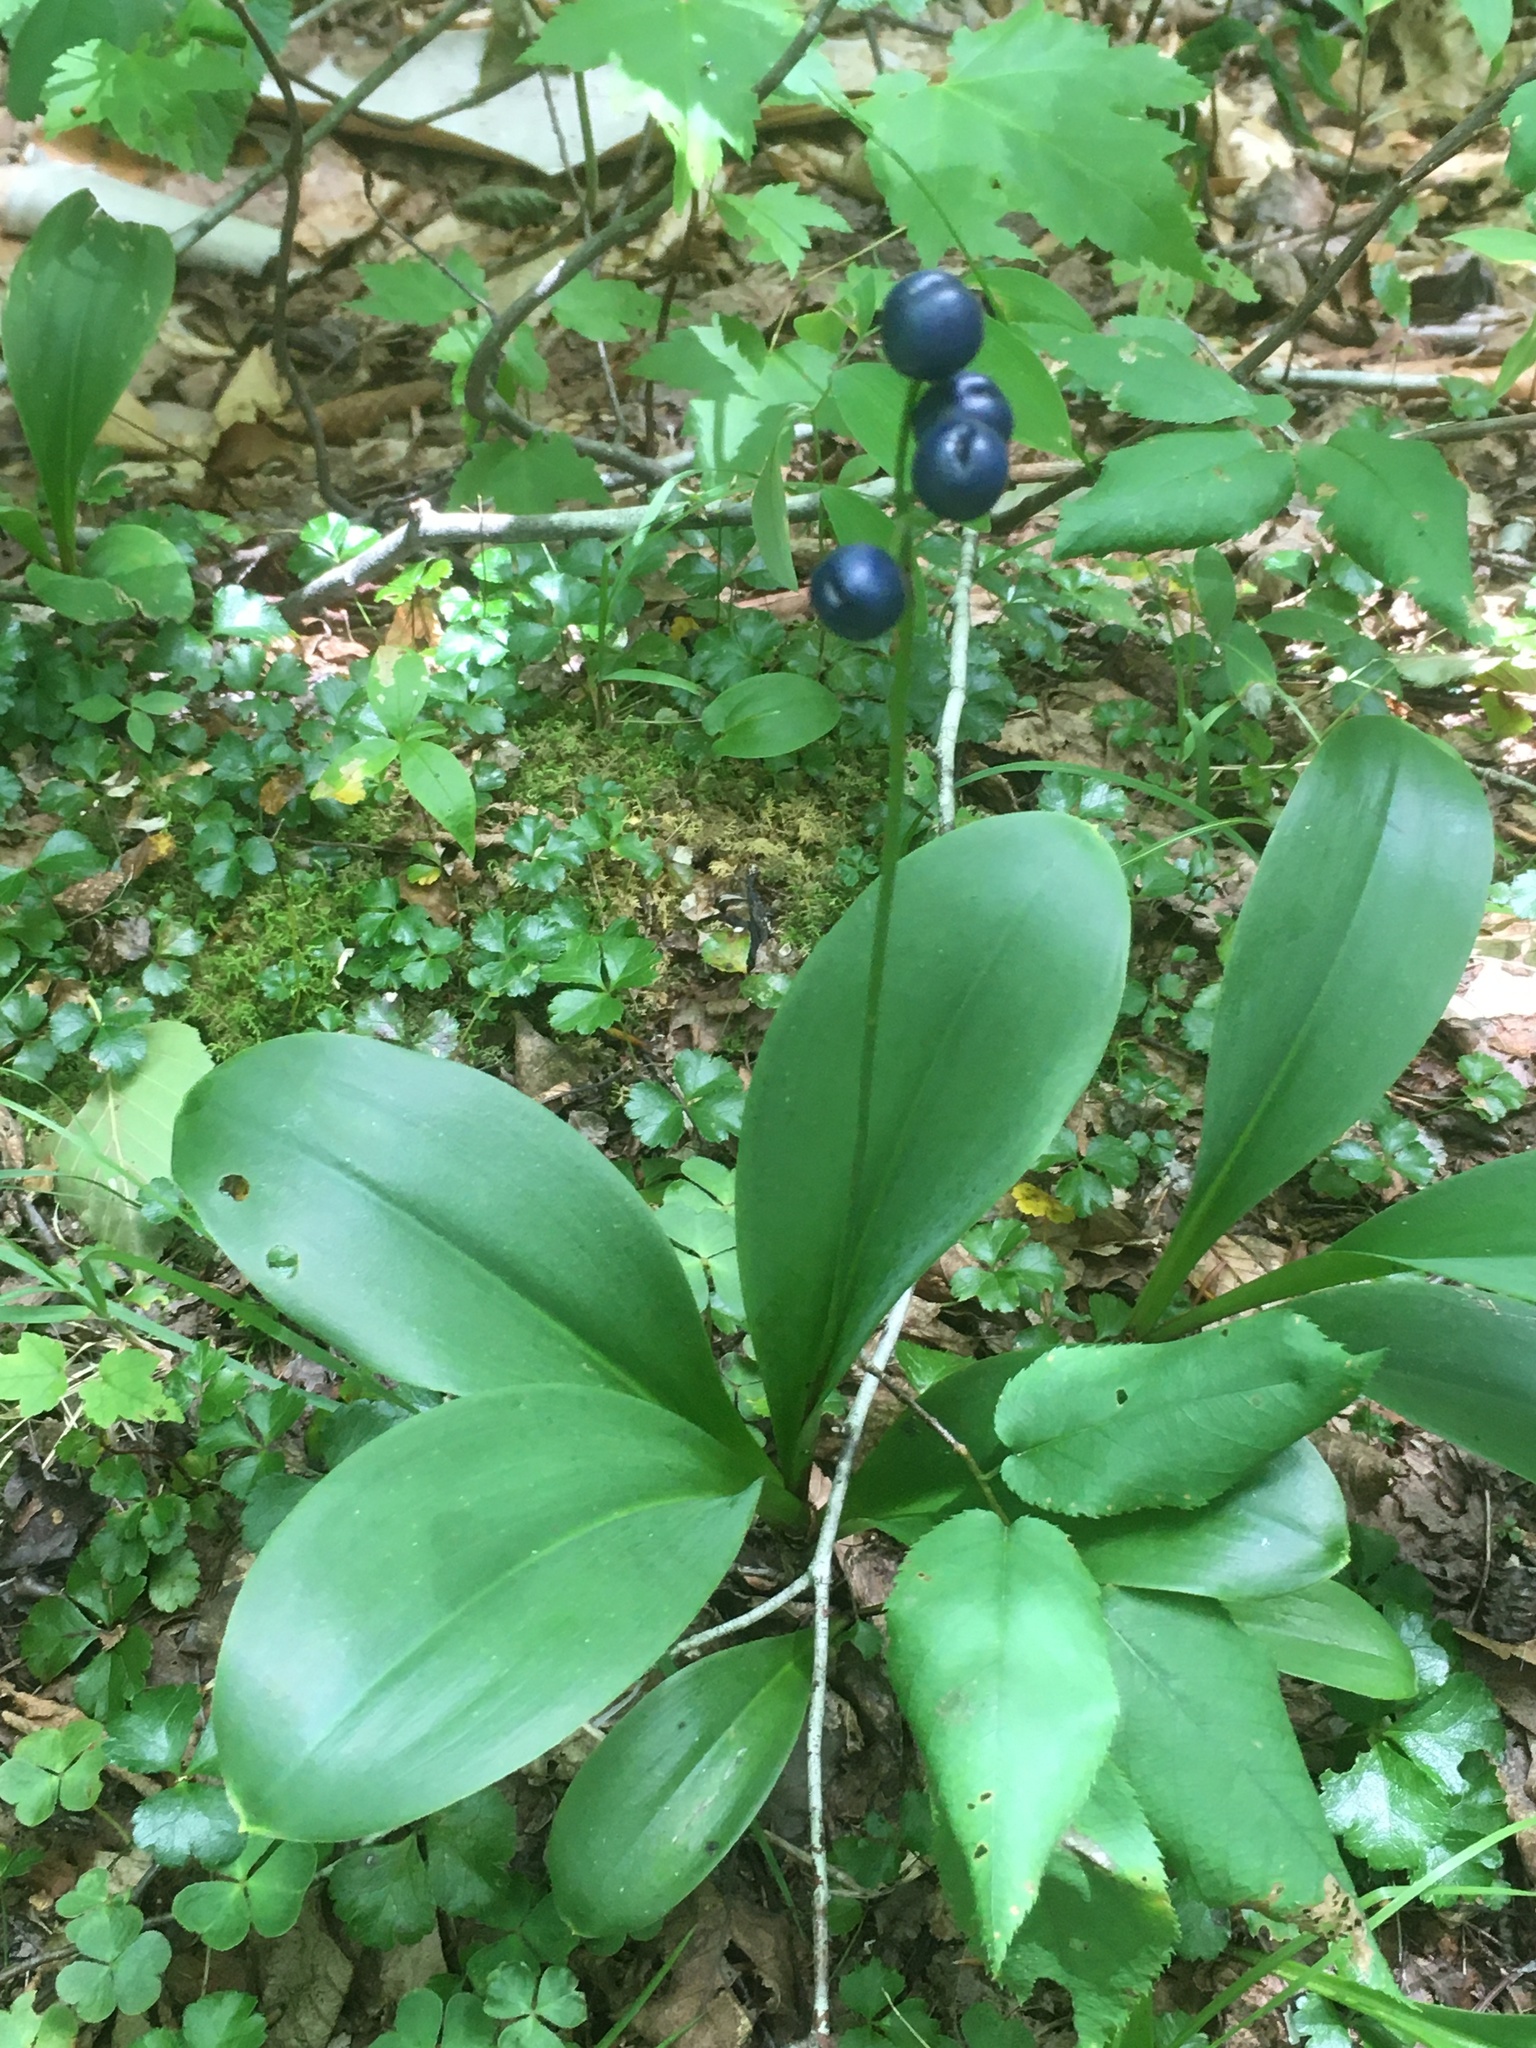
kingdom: Plantae
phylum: Tracheophyta
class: Liliopsida
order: Liliales
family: Liliaceae
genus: Clintonia
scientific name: Clintonia borealis
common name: Yellow clintonia
